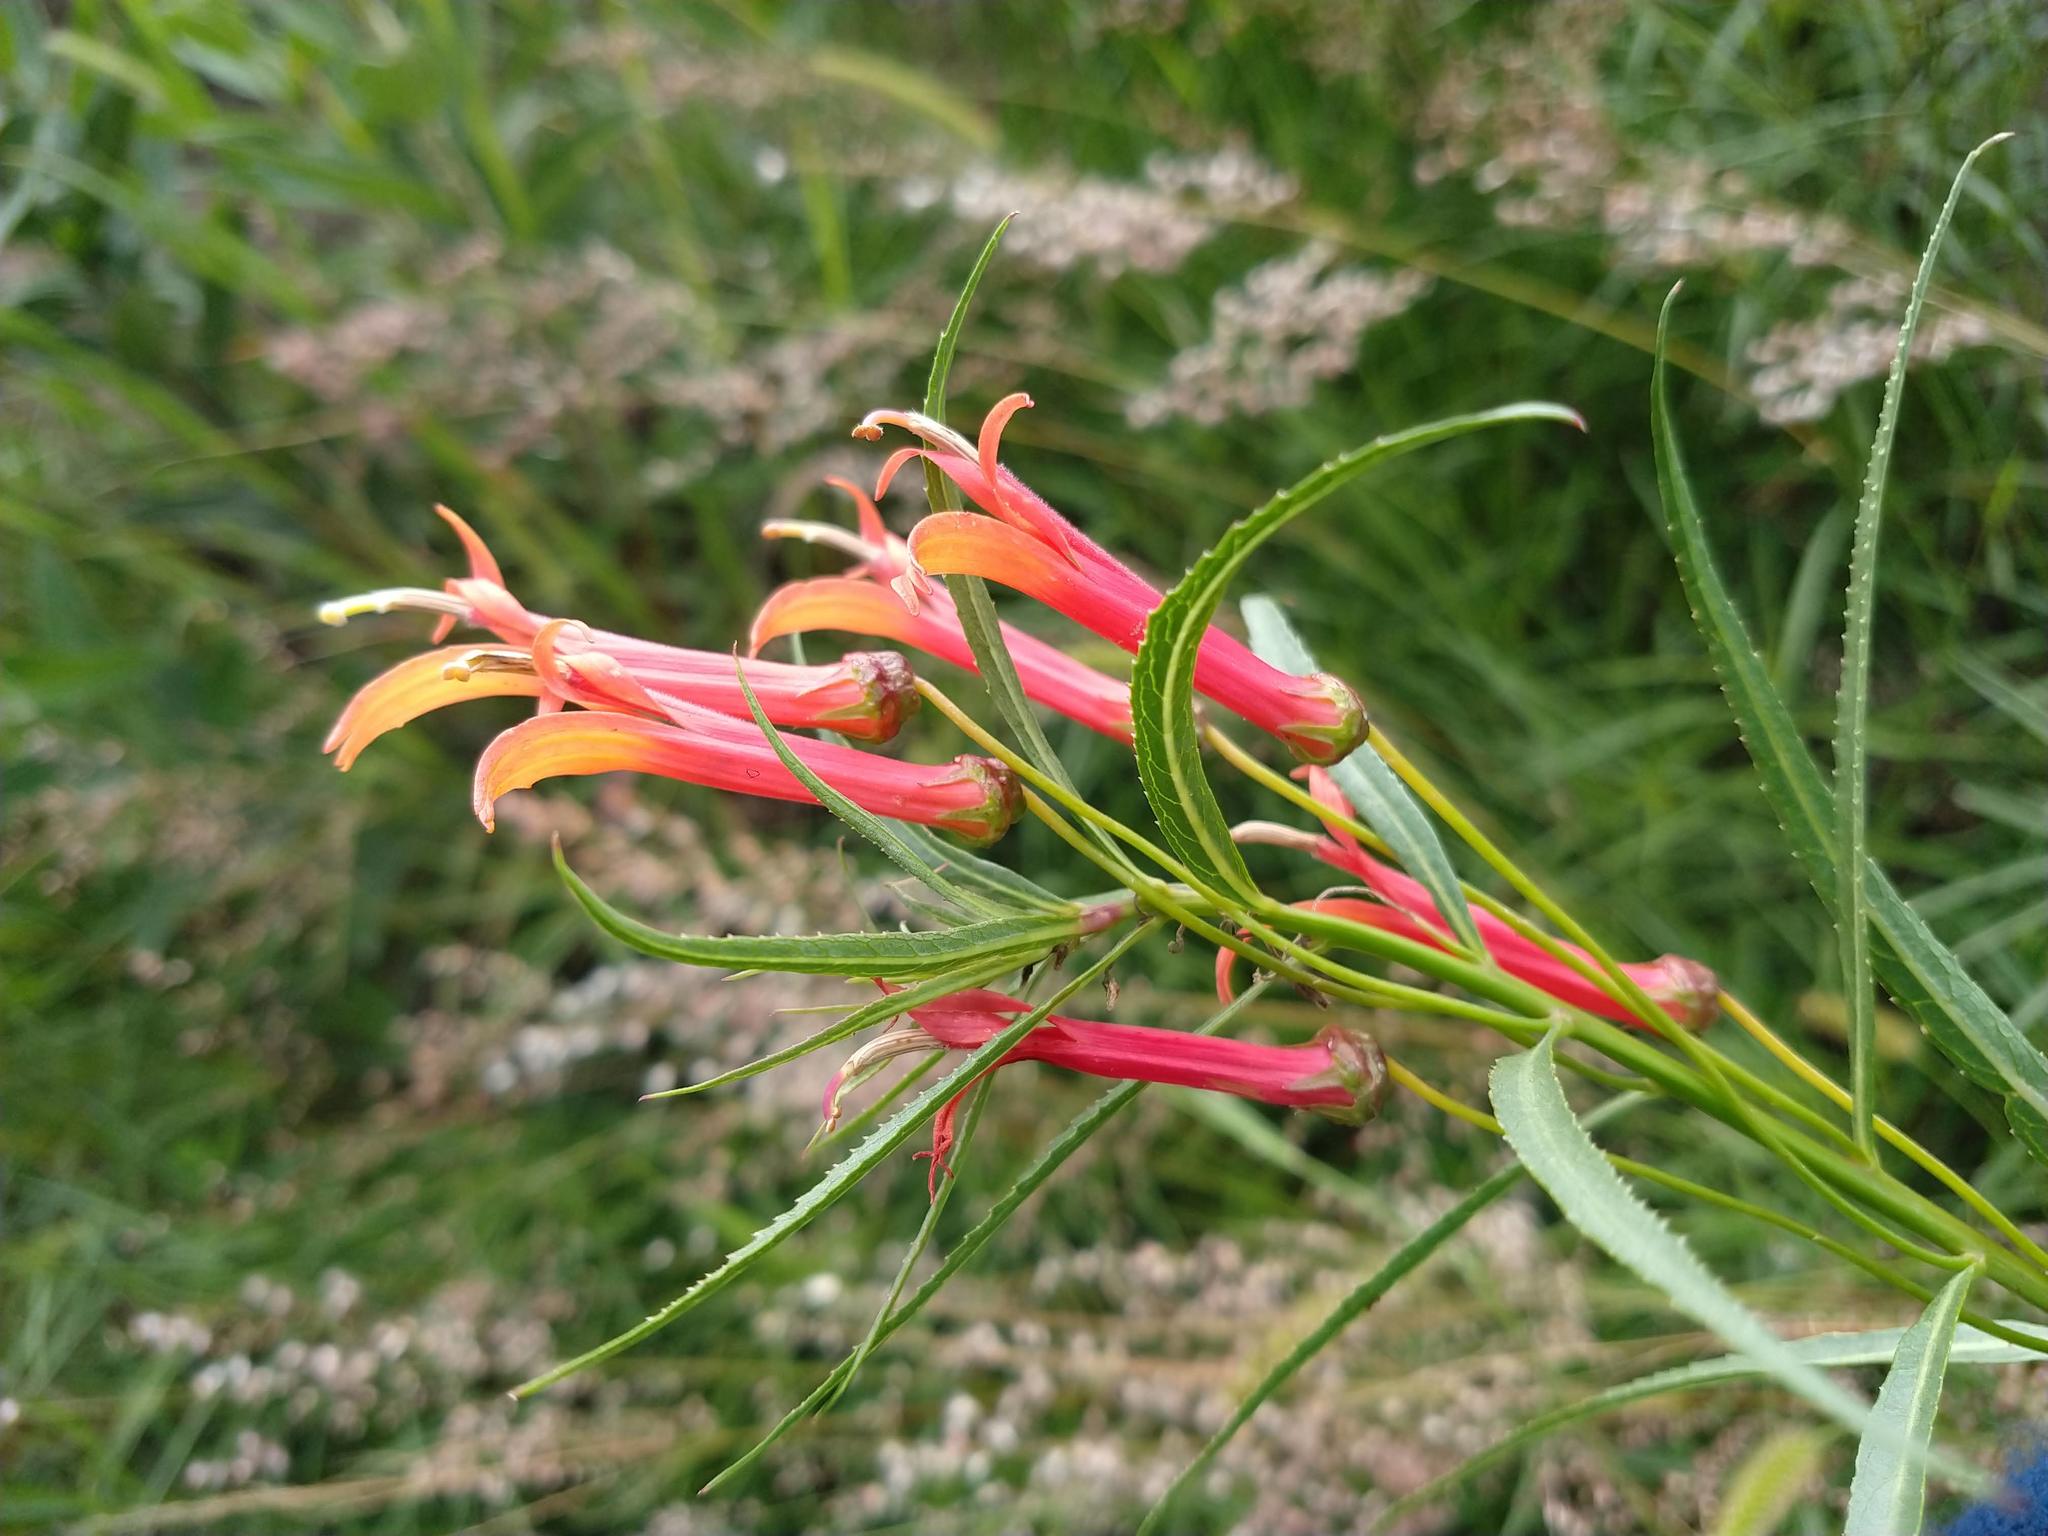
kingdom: Plantae
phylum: Tracheophyta
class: Magnoliopsida
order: Asterales
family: Campanulaceae
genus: Lobelia
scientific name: Lobelia laxiflora
